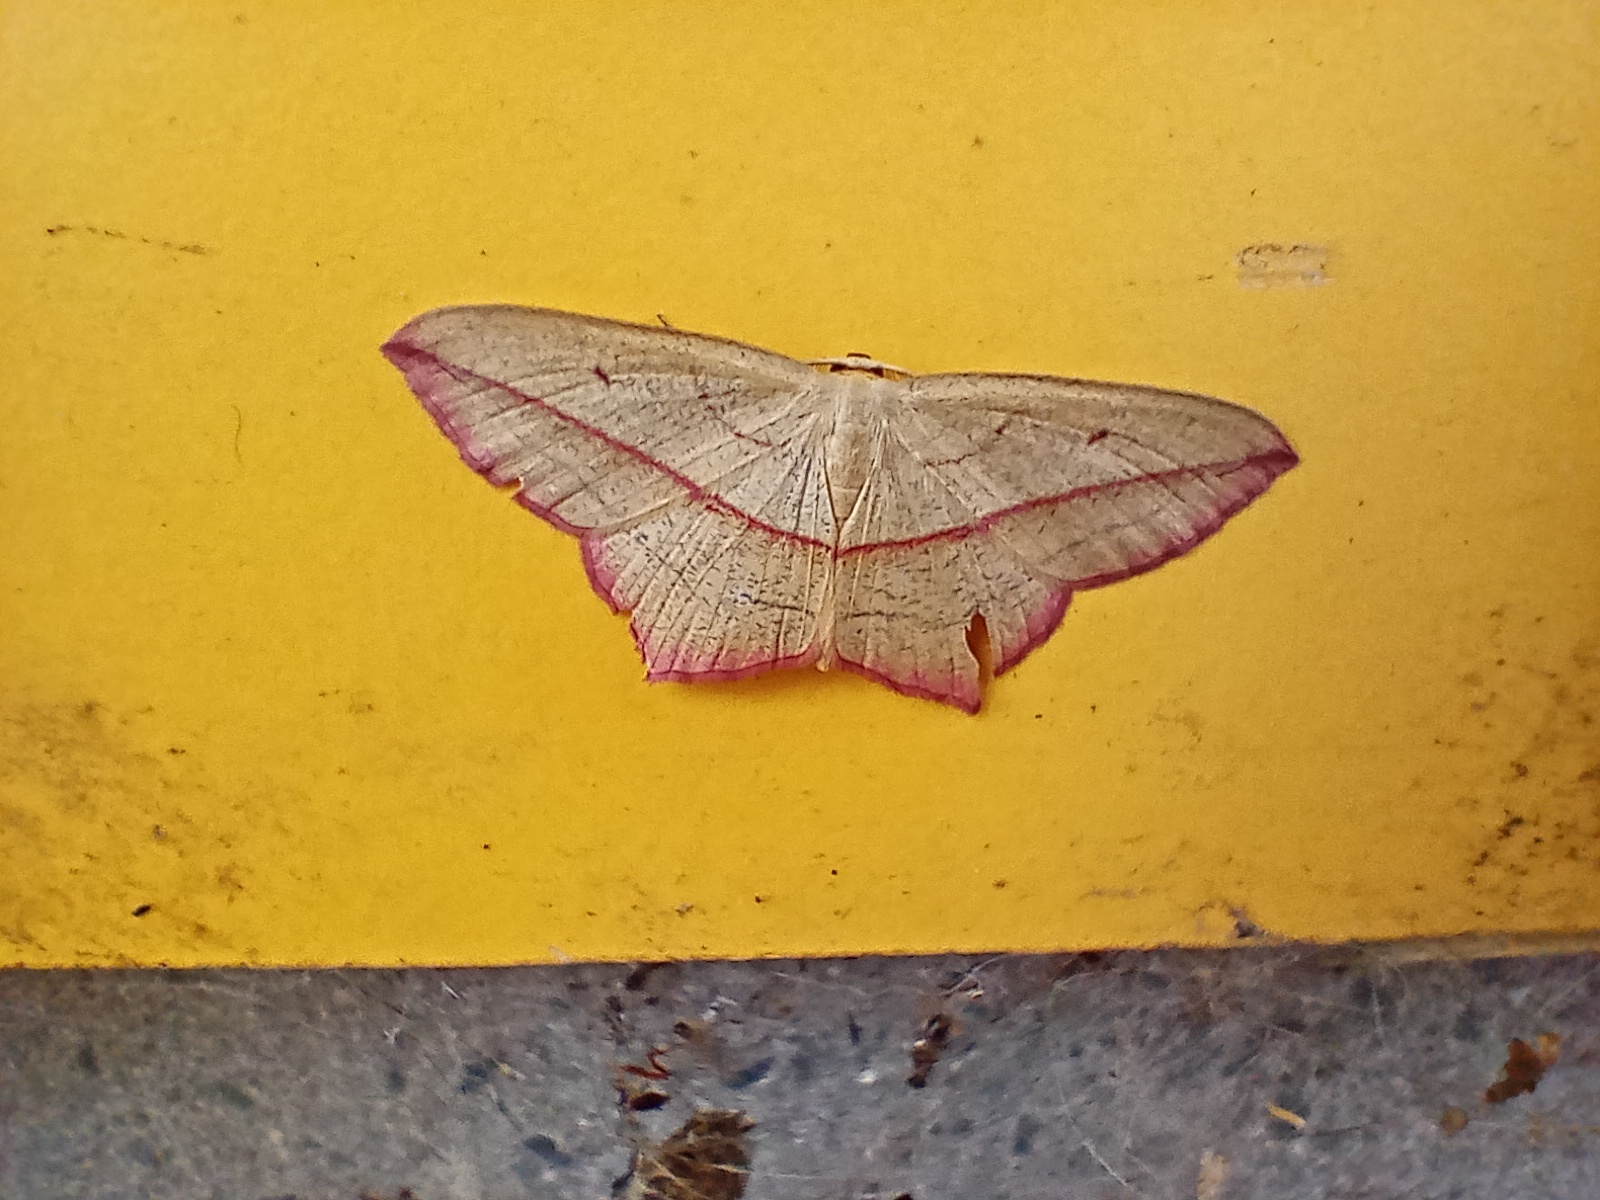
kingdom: Animalia
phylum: Arthropoda
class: Insecta
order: Lepidoptera
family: Geometridae
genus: Timandra
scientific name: Timandra comae
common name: Blood-vein
